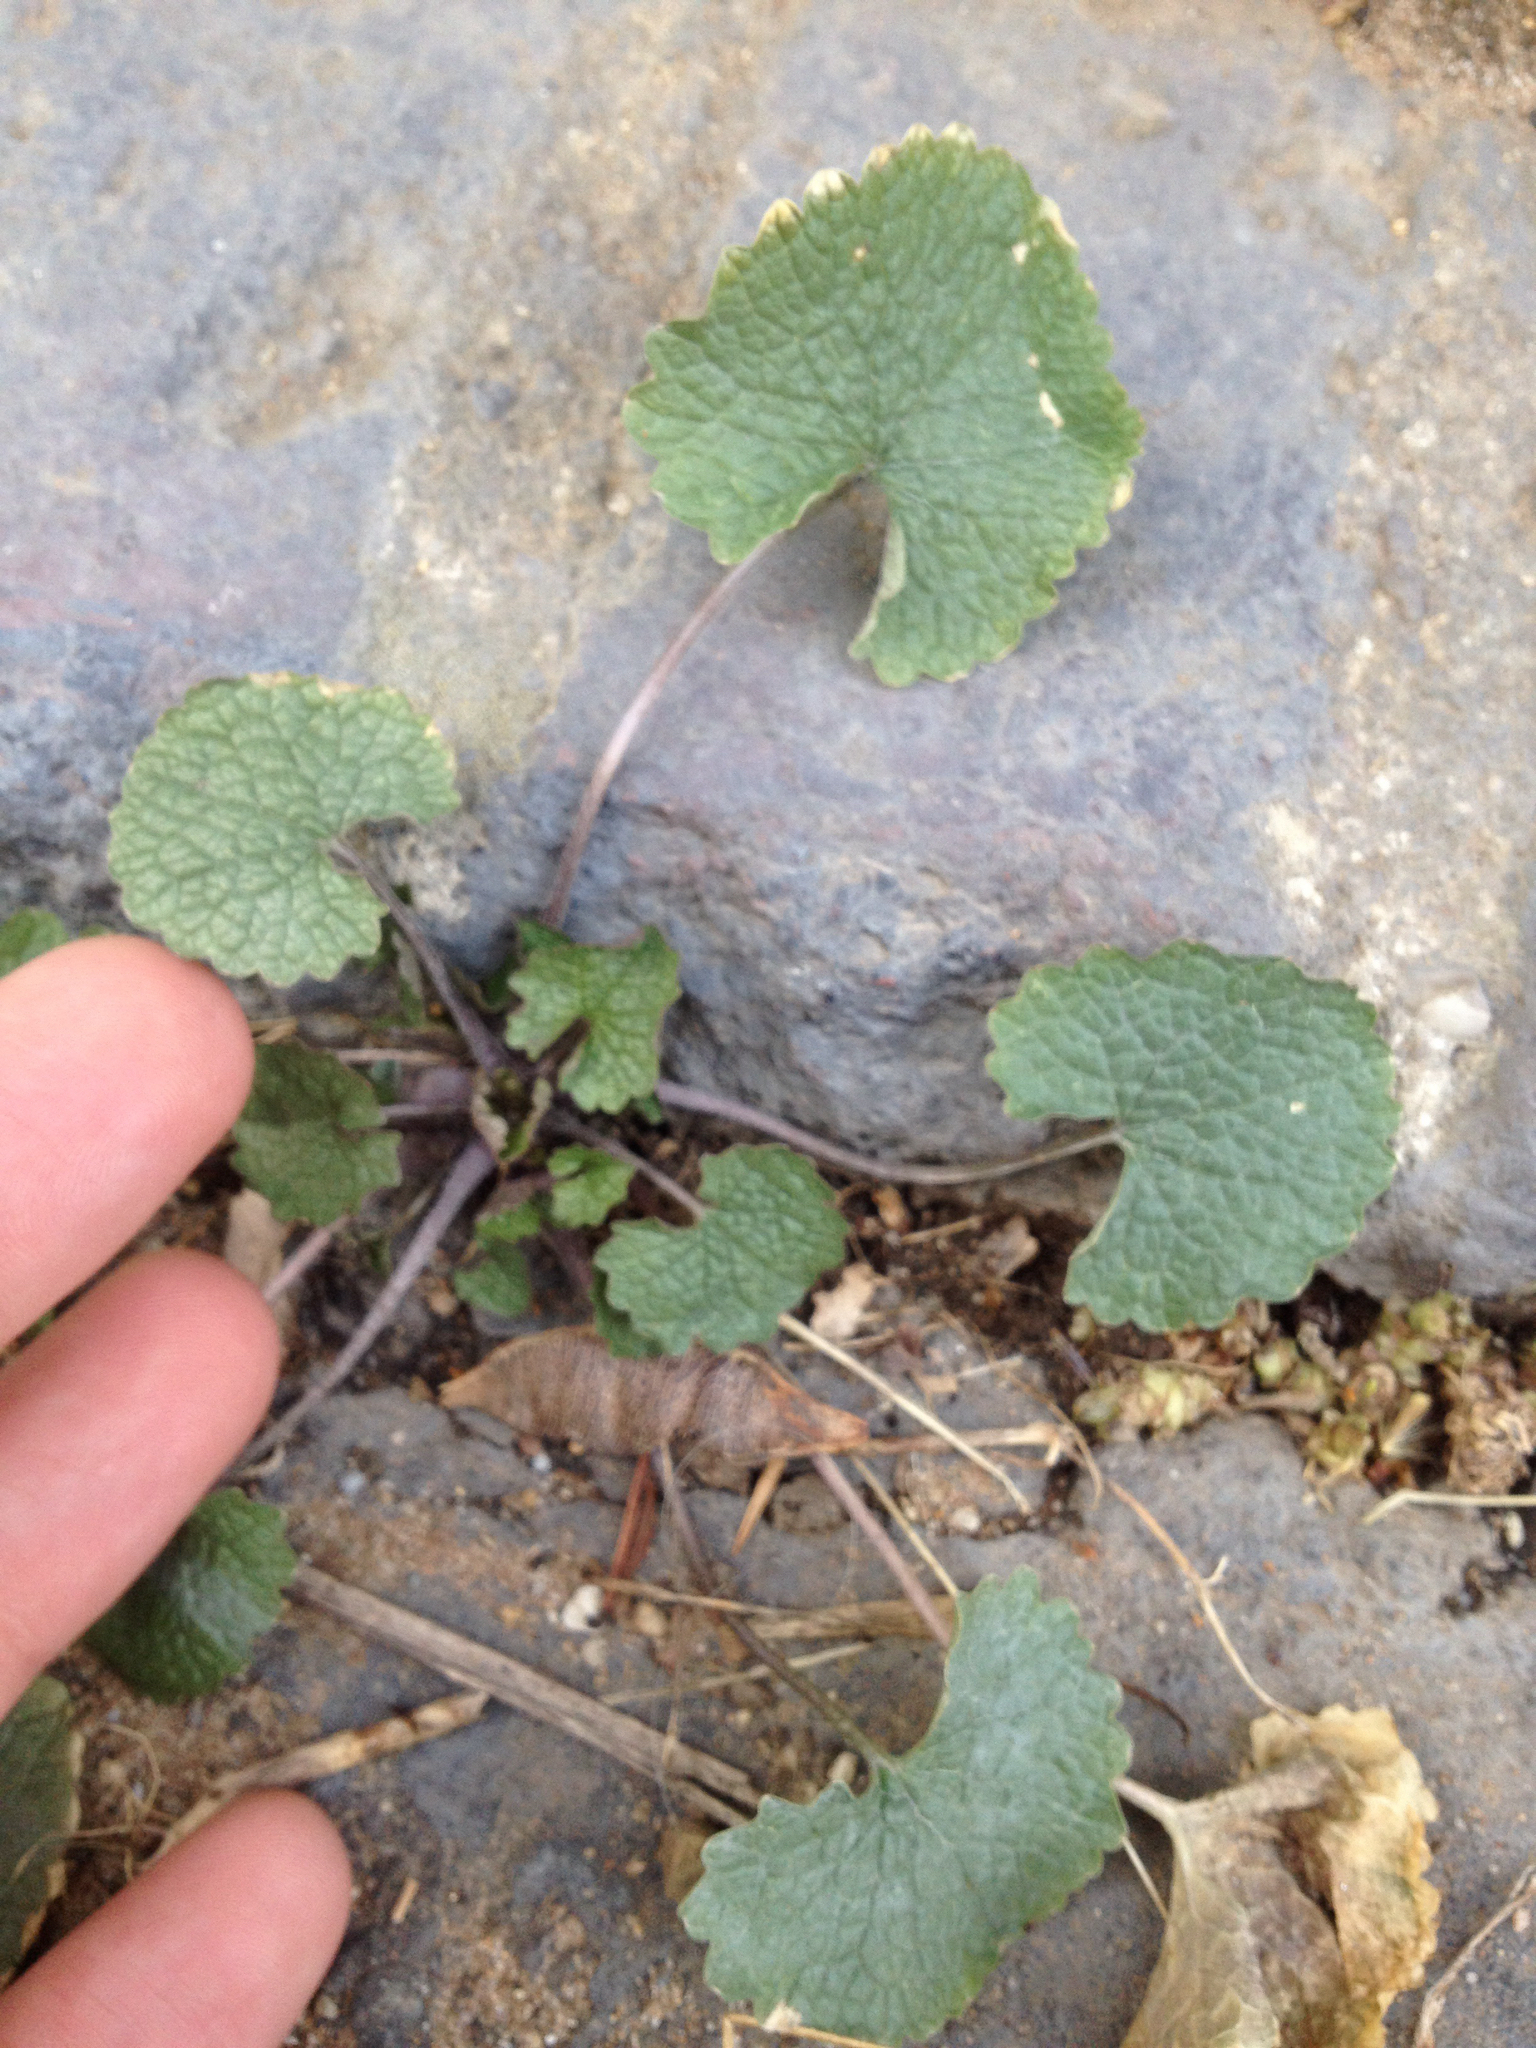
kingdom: Plantae
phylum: Tracheophyta
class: Magnoliopsida
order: Brassicales
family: Brassicaceae
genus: Alliaria
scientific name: Alliaria petiolata
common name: Garlic mustard
